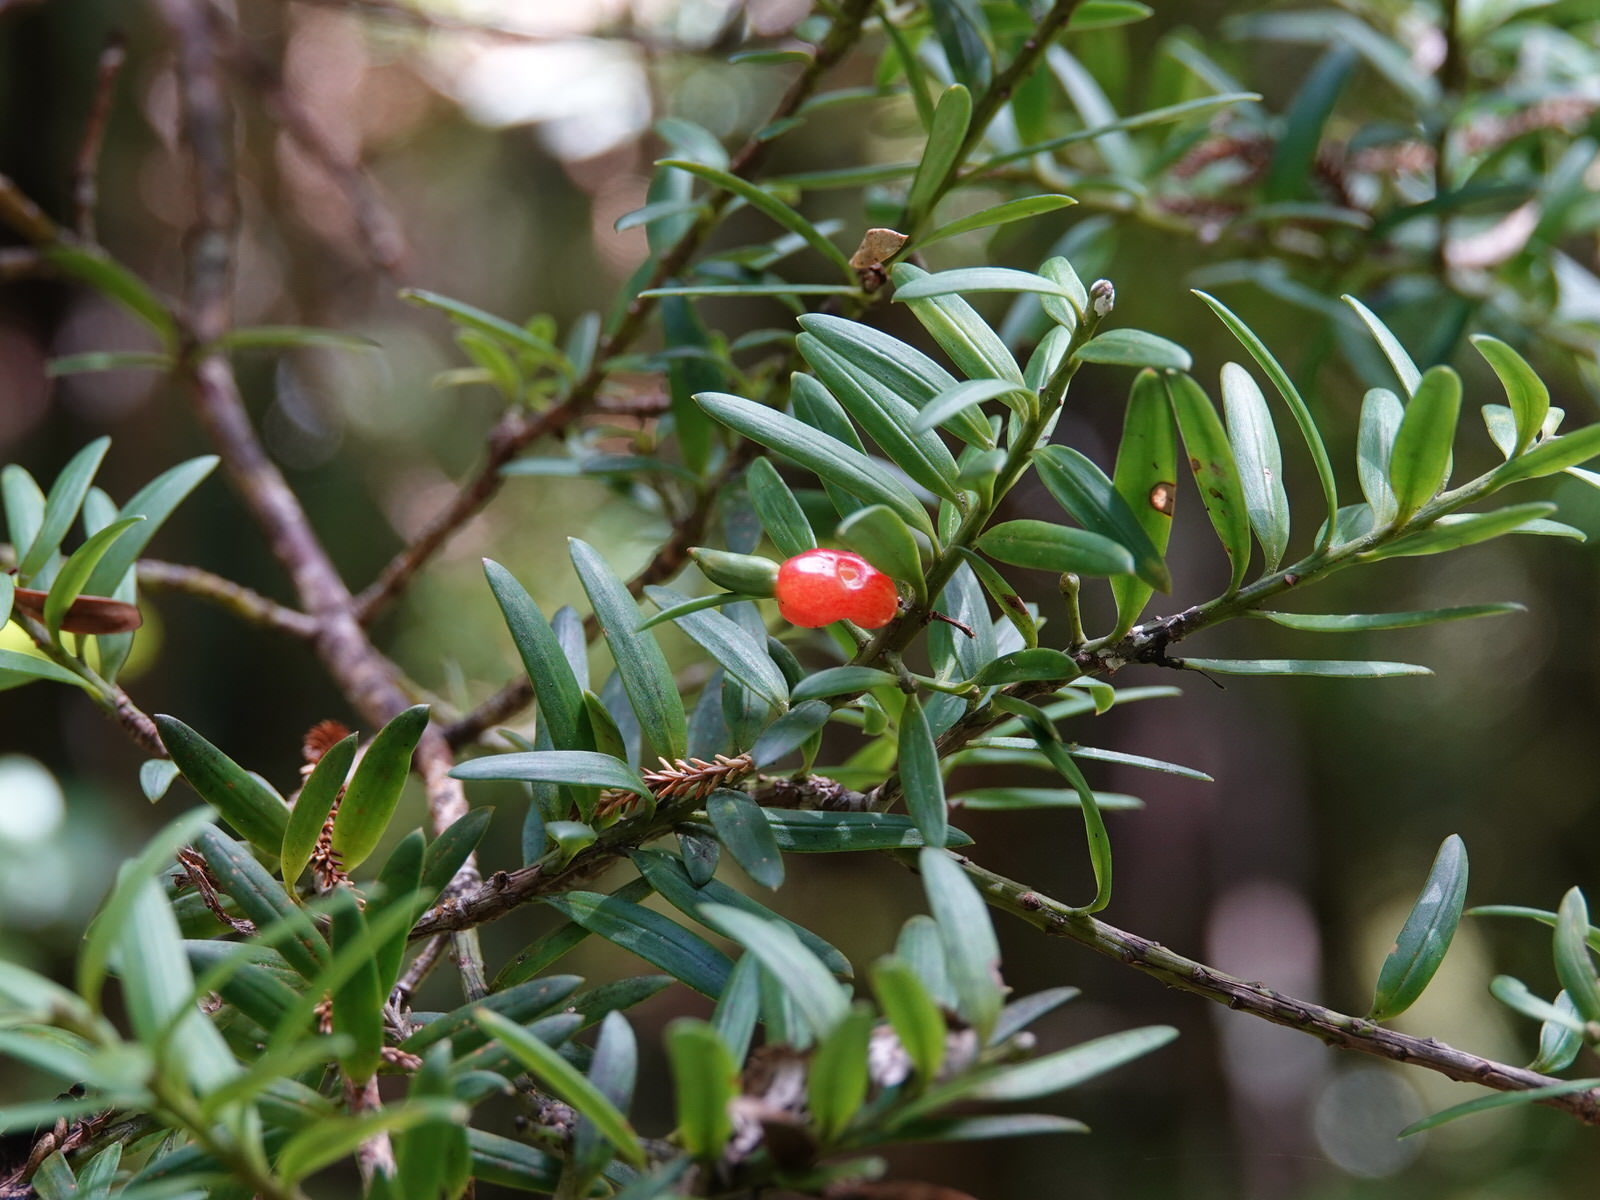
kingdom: Plantae
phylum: Tracheophyta
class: Pinopsida
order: Pinales
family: Podocarpaceae
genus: Podocarpus
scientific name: Podocarpus totara
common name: Totara
